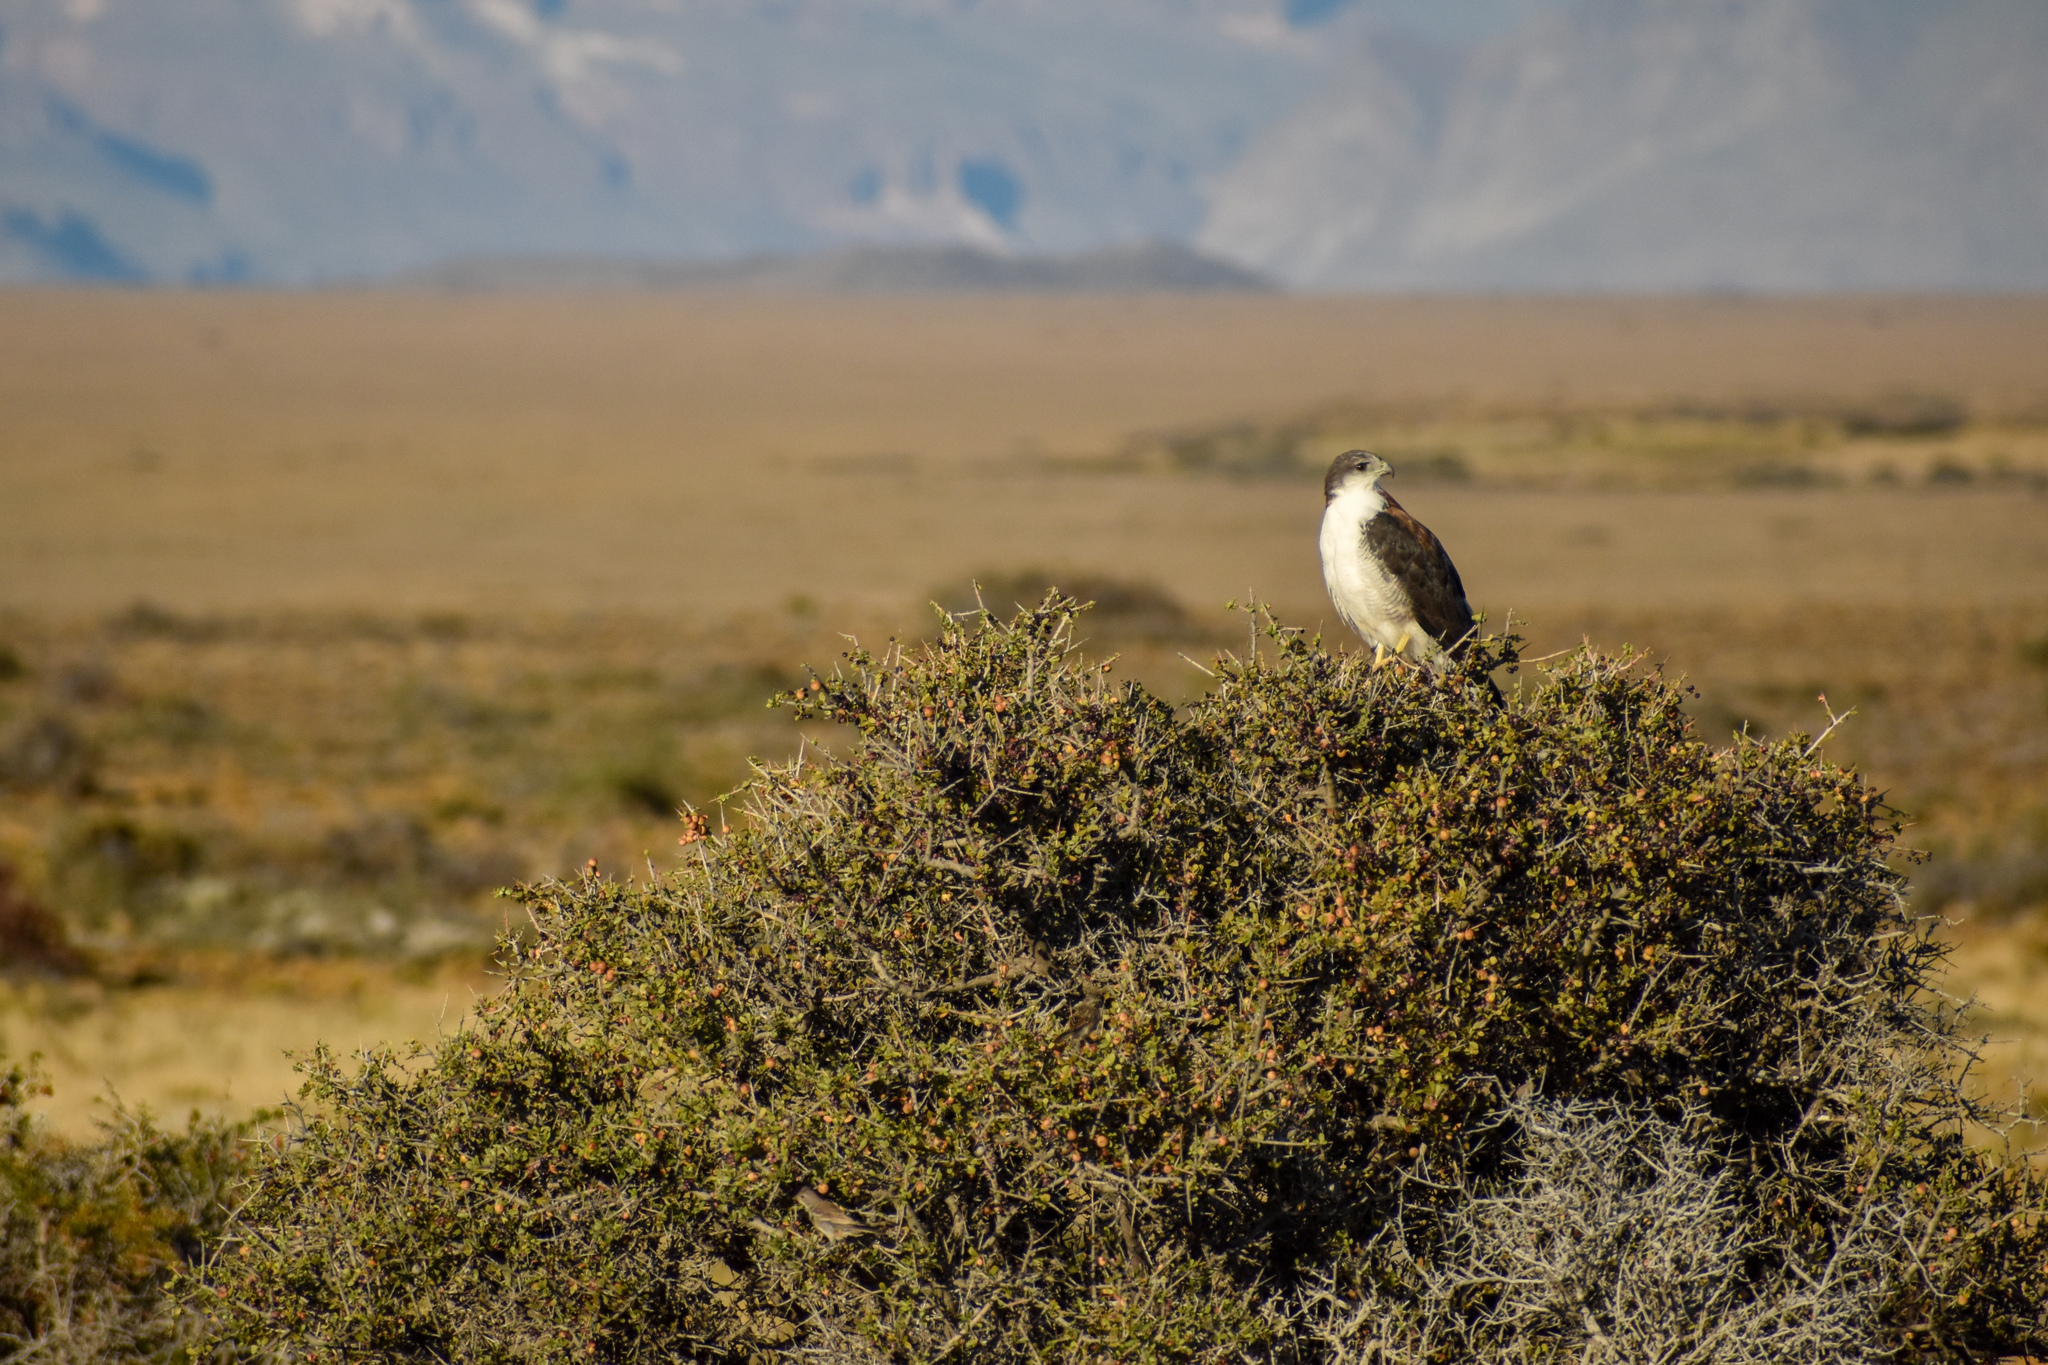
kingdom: Animalia
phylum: Chordata
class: Aves
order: Accipitriformes
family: Accipitridae
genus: Buteo
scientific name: Buteo polyosoma
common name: Variable hawk
